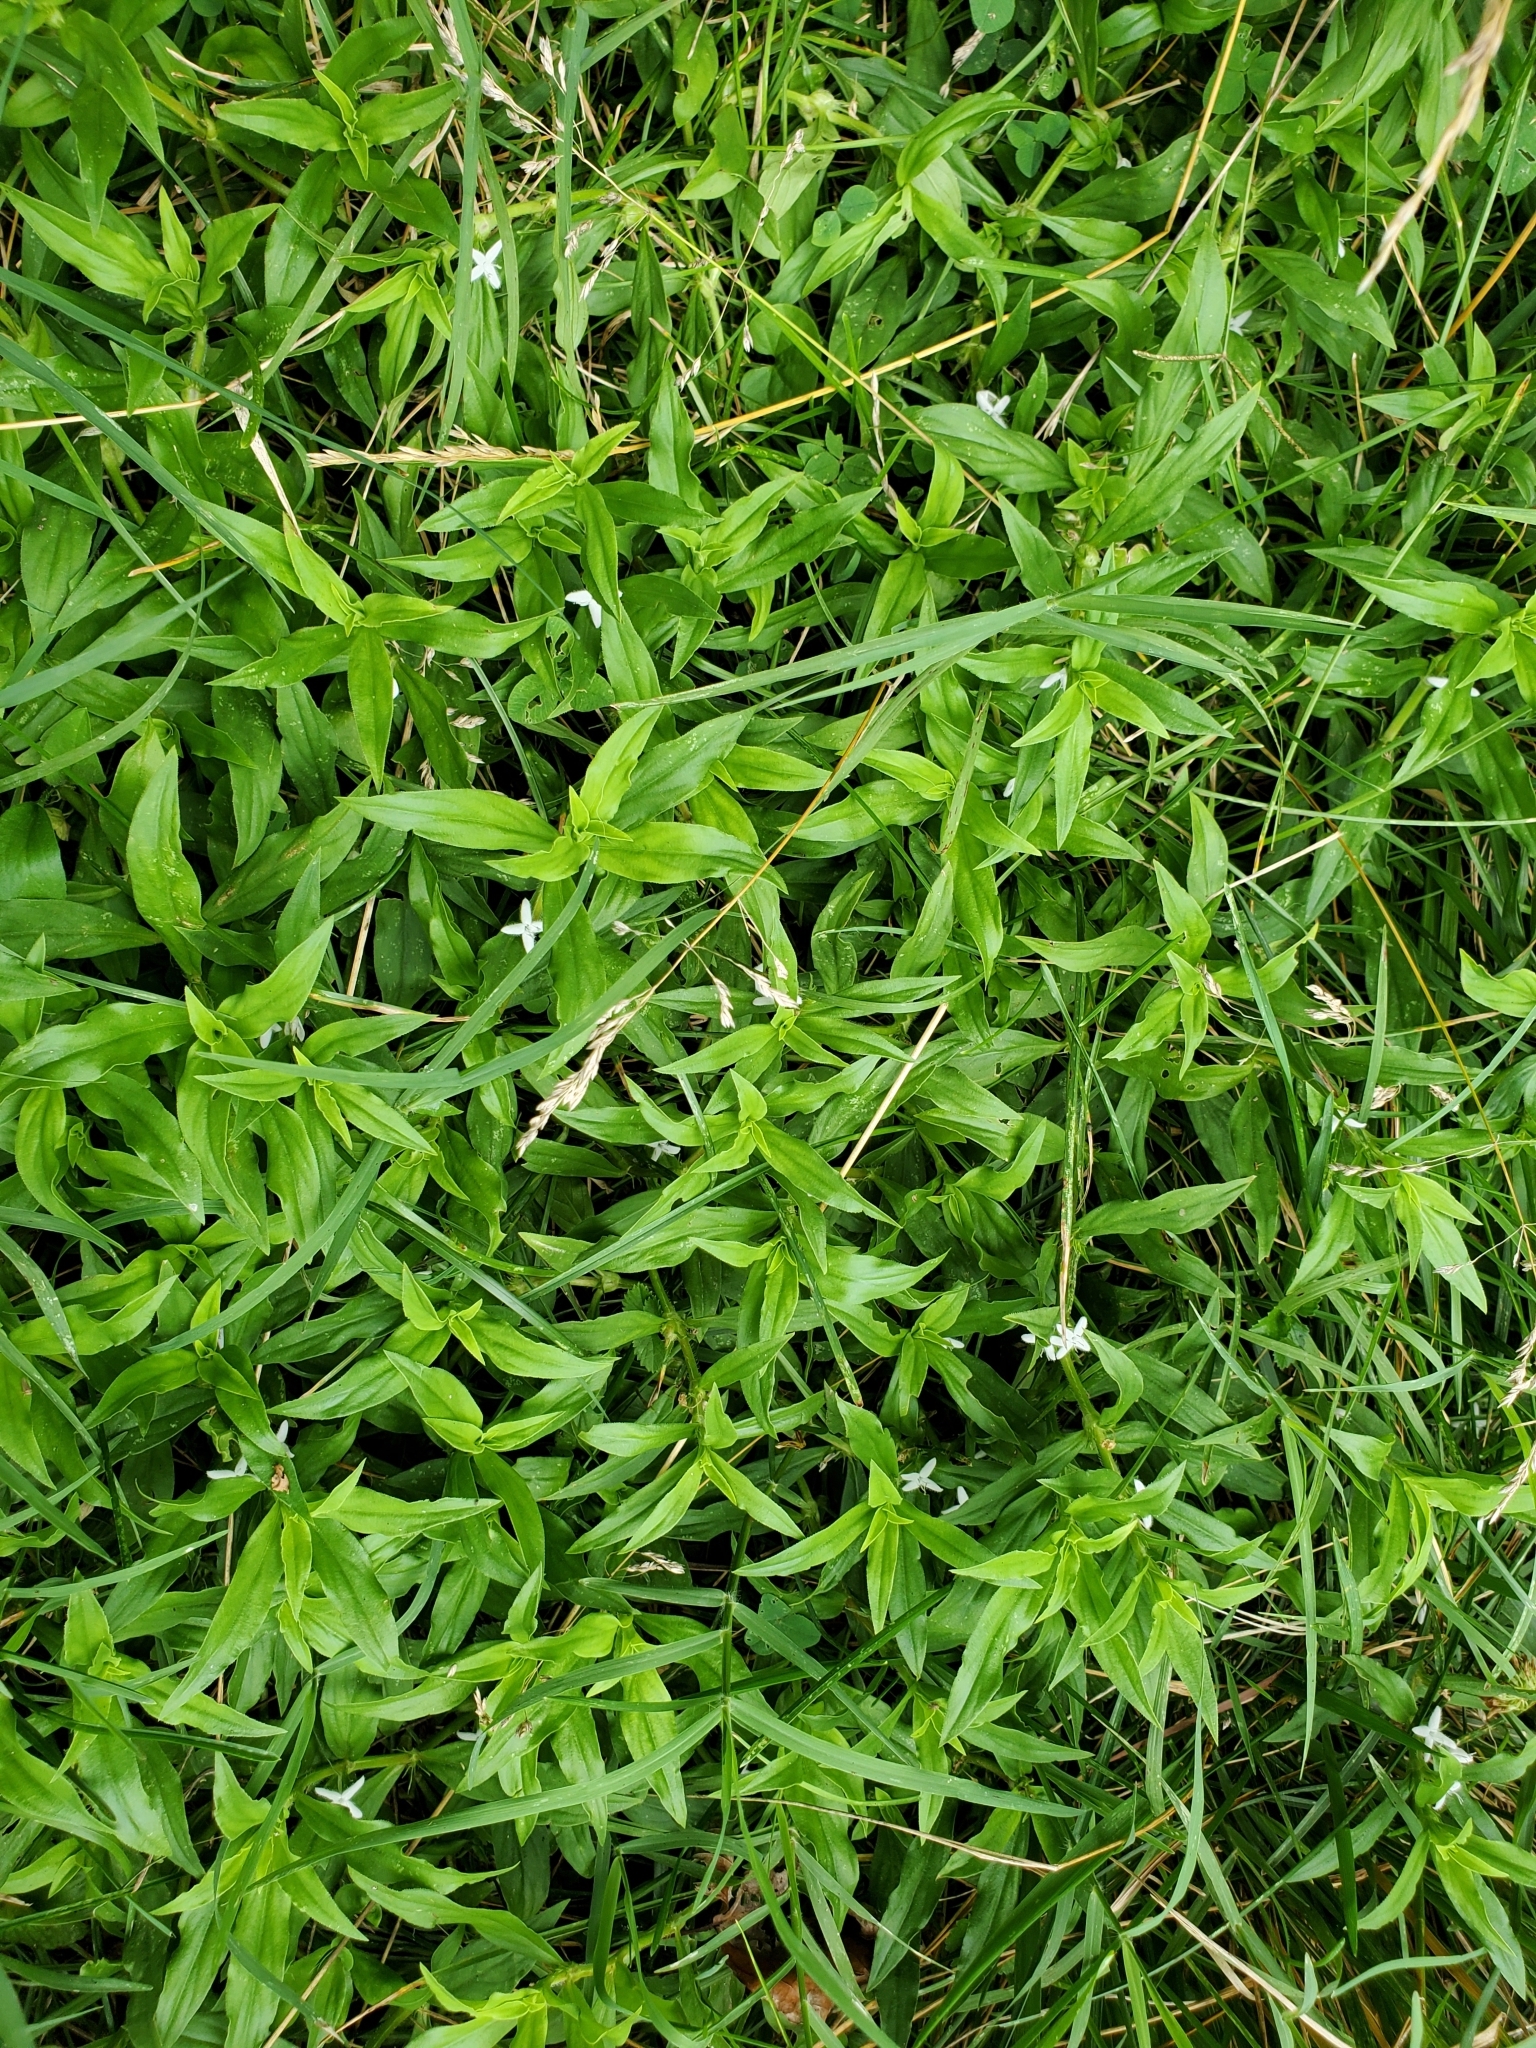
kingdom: Plantae
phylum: Tracheophyta
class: Magnoliopsida
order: Gentianales
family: Rubiaceae
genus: Diodia
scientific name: Diodia virginiana
